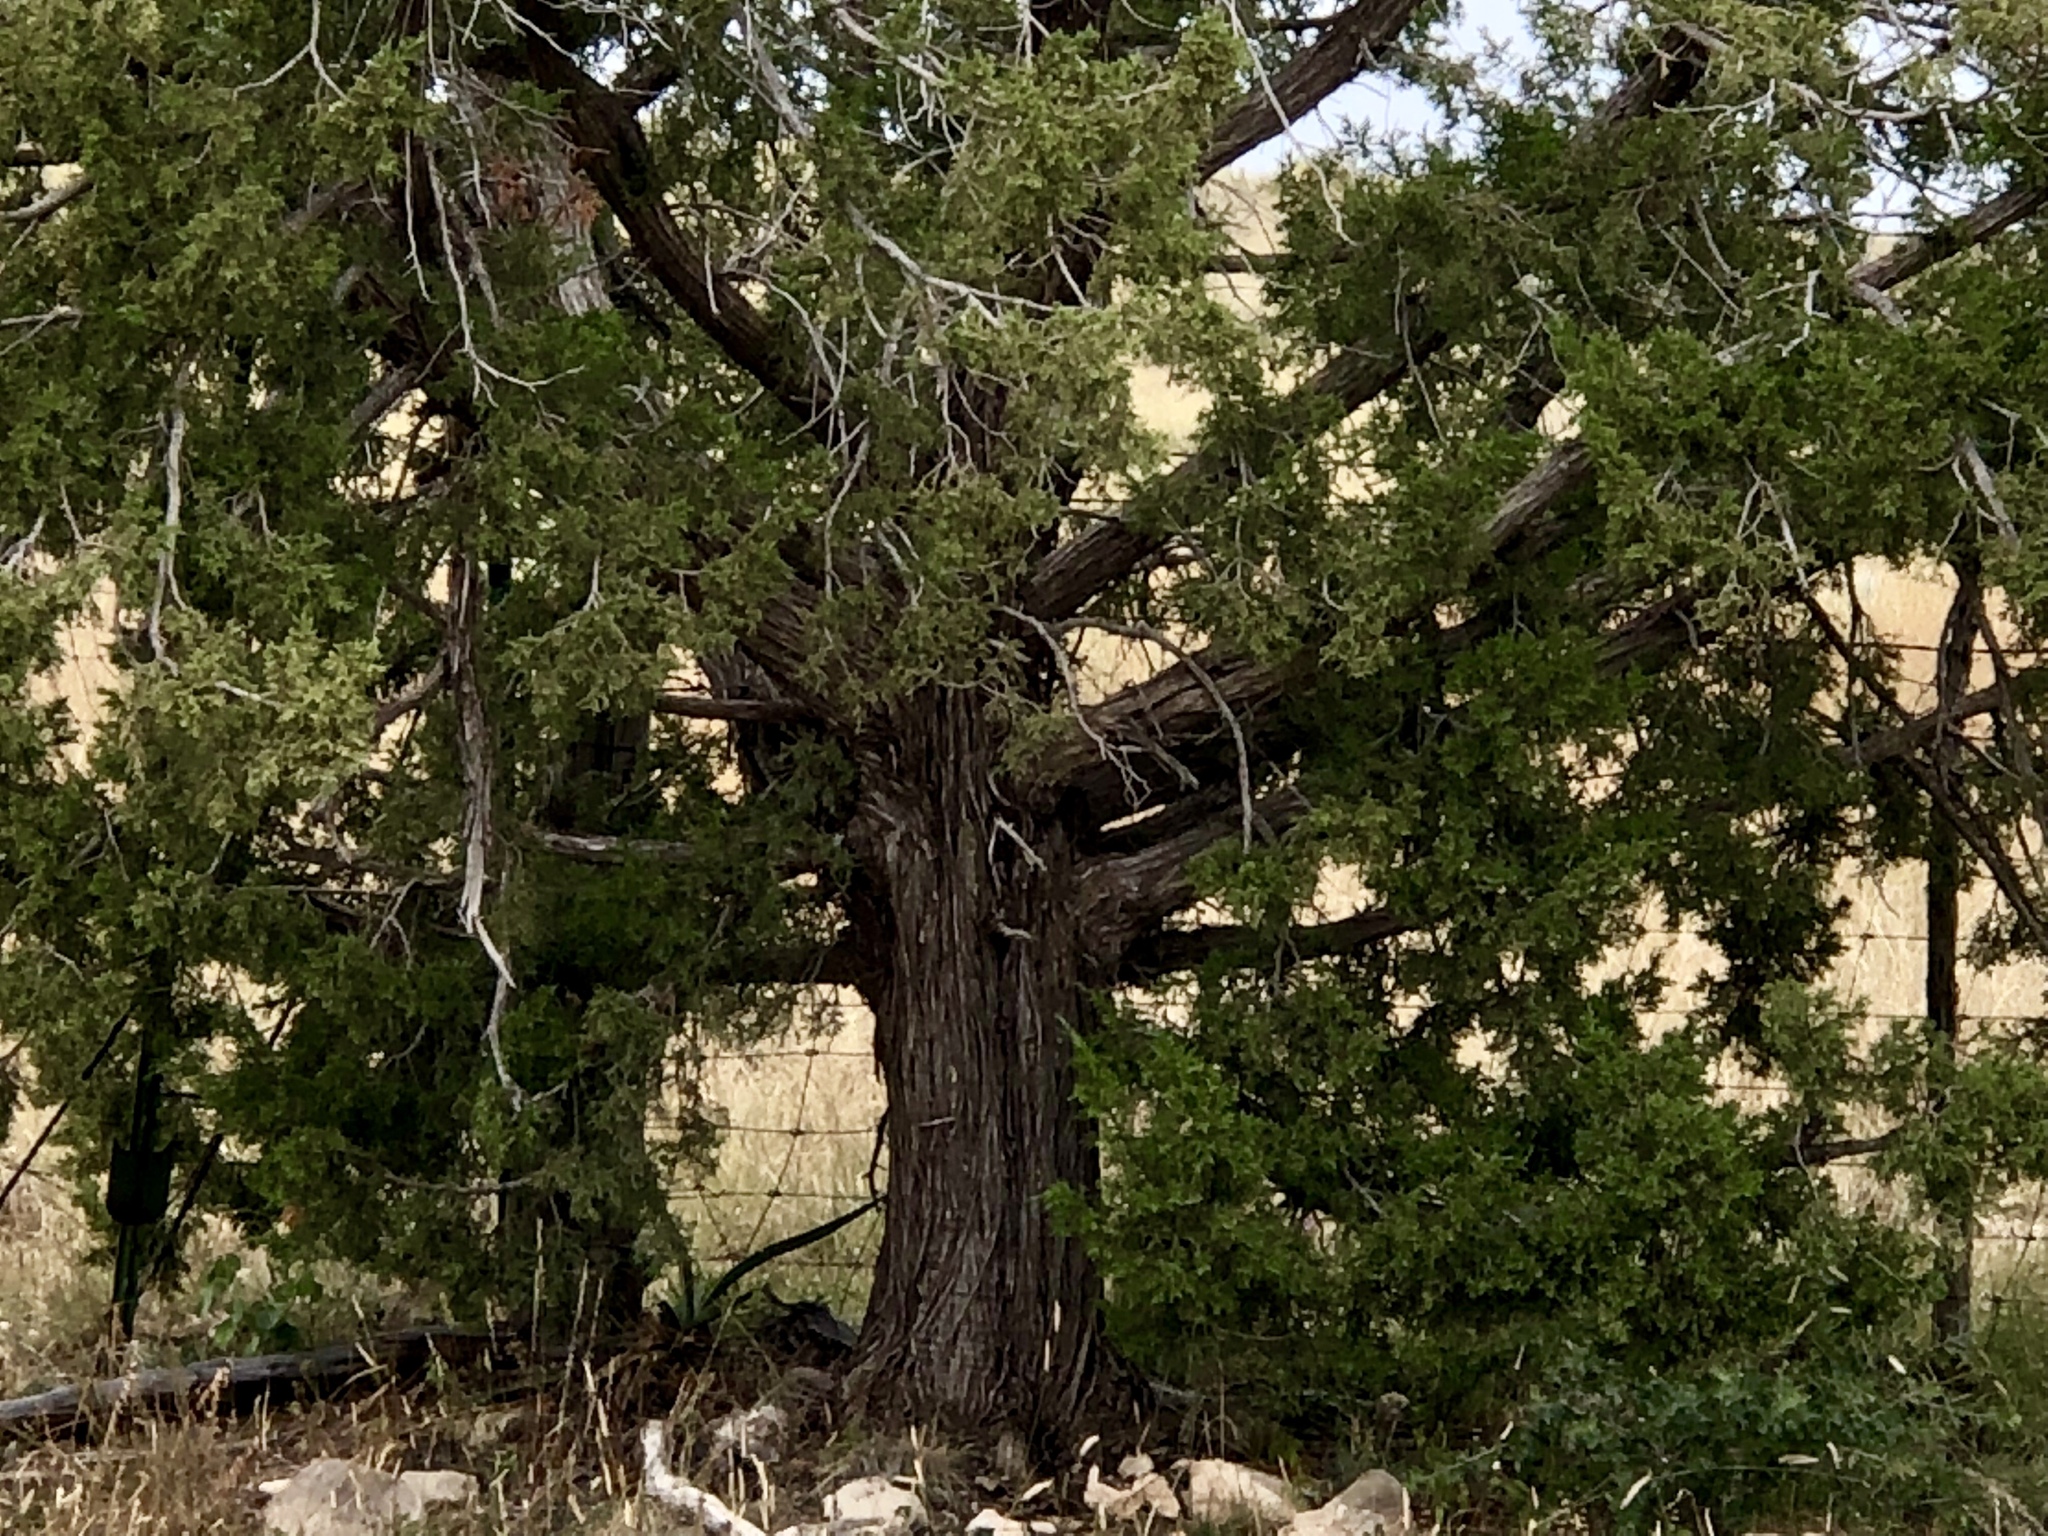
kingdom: Plantae
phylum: Tracheophyta
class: Pinopsida
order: Pinales
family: Cupressaceae
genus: Juniperus
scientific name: Juniperus monosperma
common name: One-seed juniper
